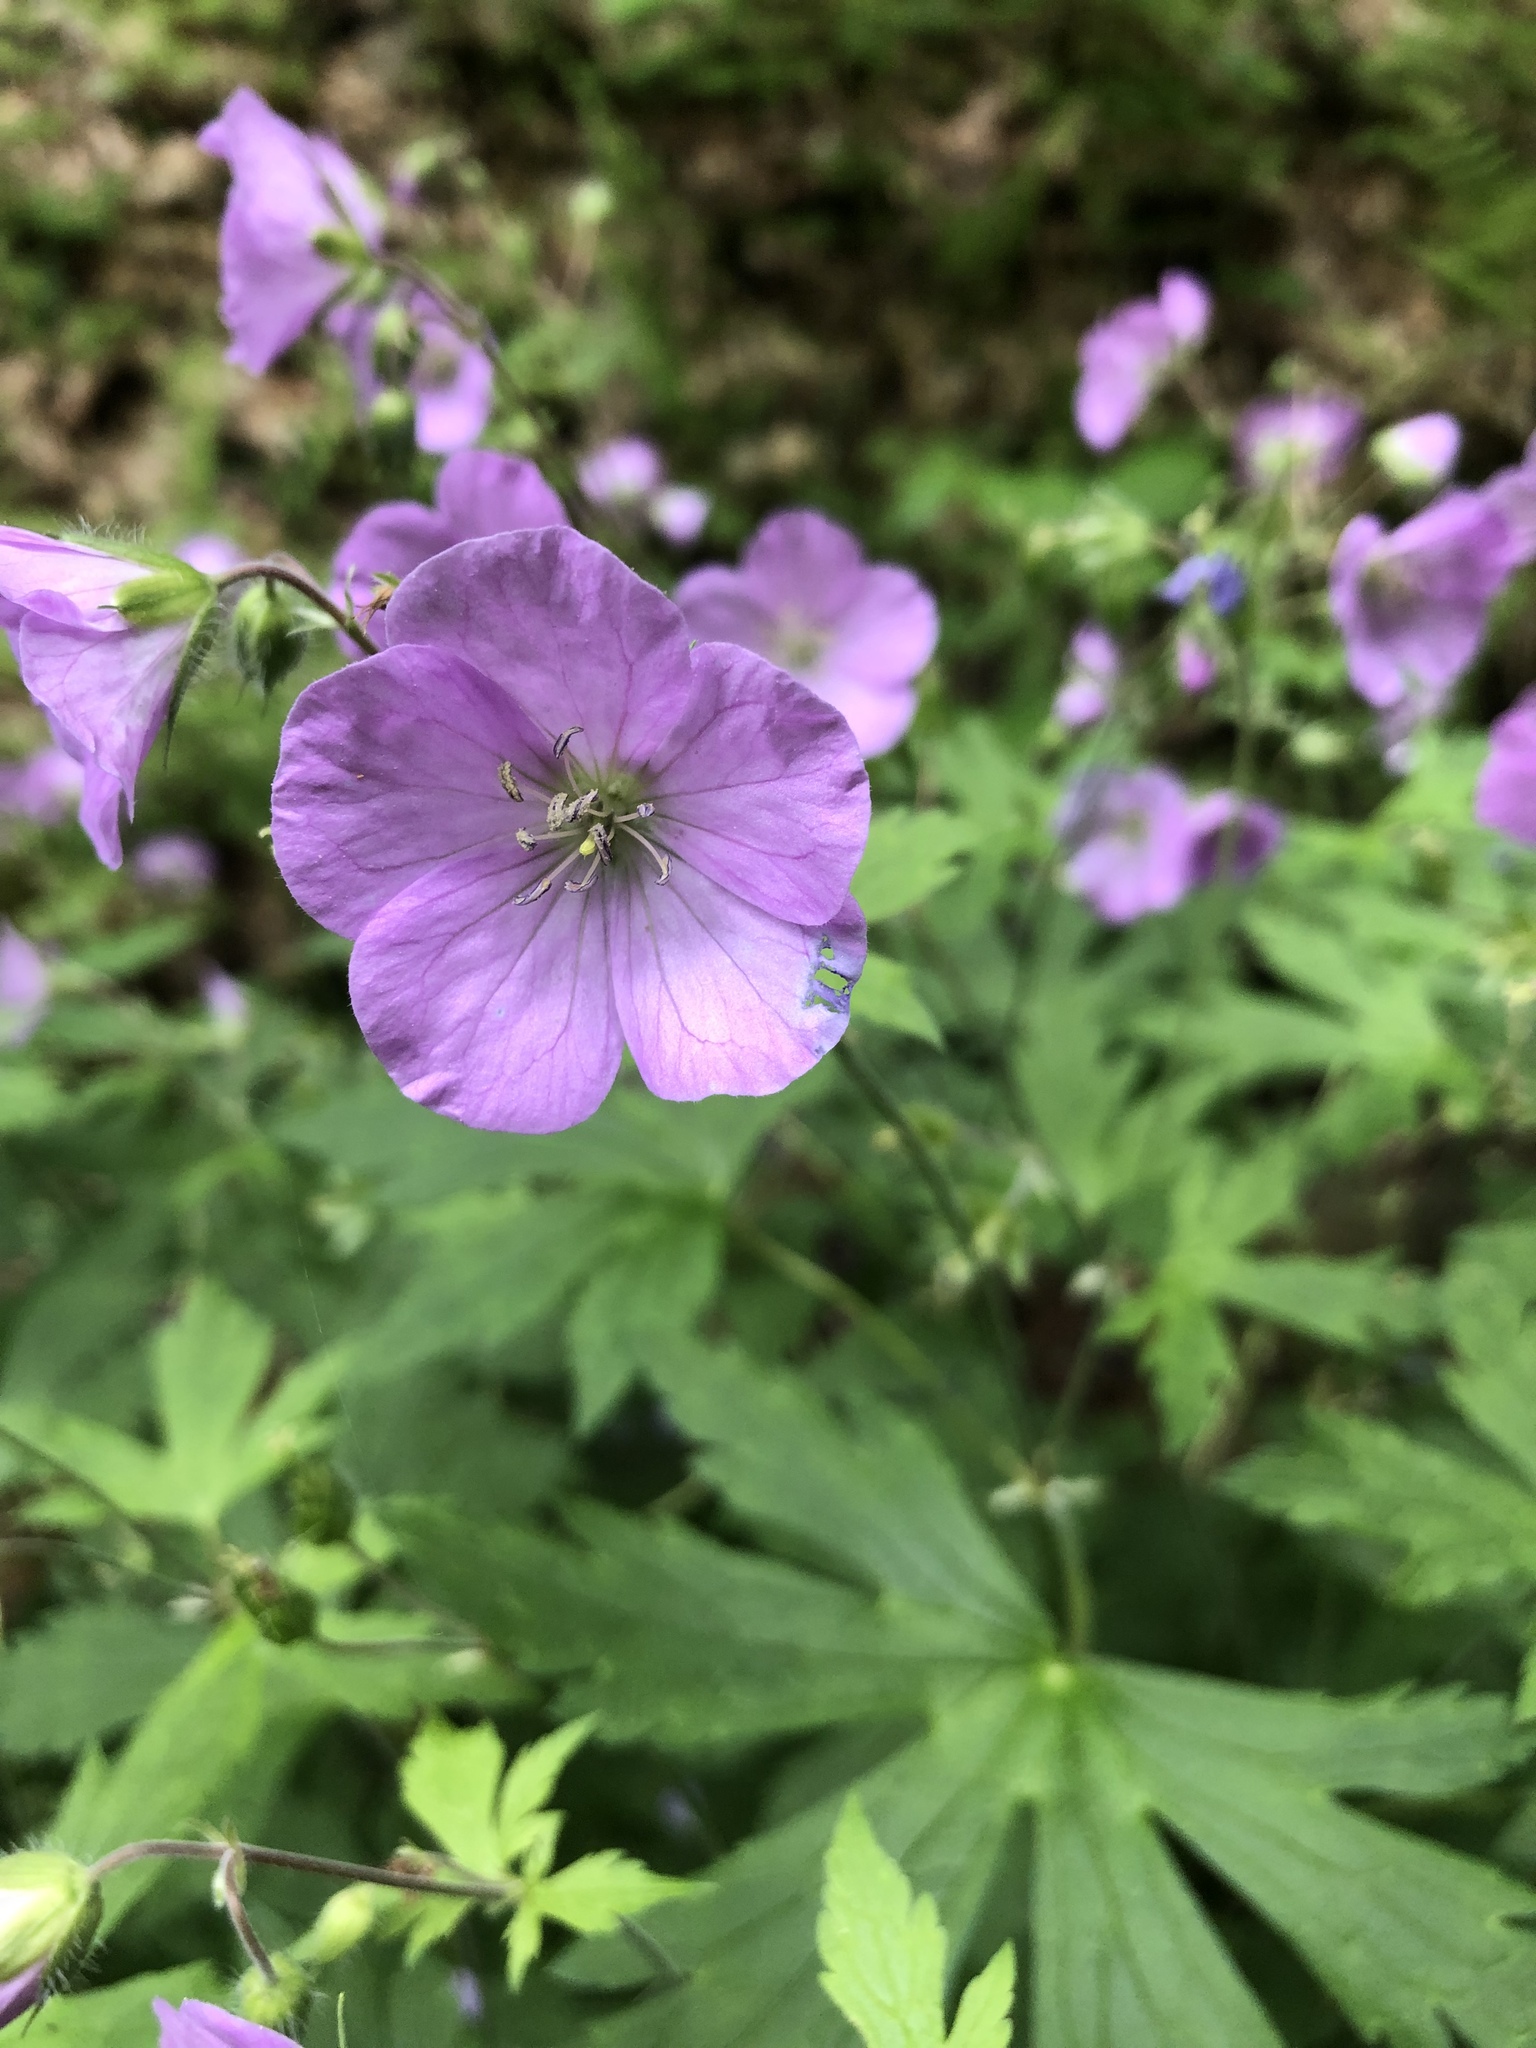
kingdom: Plantae
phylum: Tracheophyta
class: Magnoliopsida
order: Geraniales
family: Geraniaceae
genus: Geranium
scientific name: Geranium maculatum
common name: Spotted geranium
